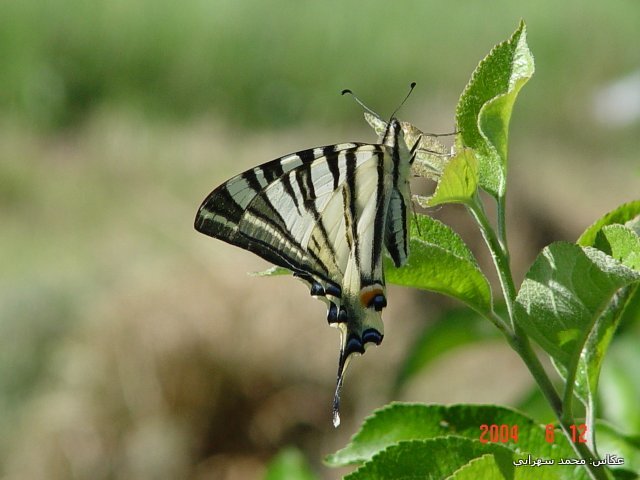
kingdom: Animalia
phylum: Arthropoda
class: Insecta
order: Lepidoptera
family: Papilionidae
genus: Iphiclides
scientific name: Iphiclides podalirius
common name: Scarce swallowtail
